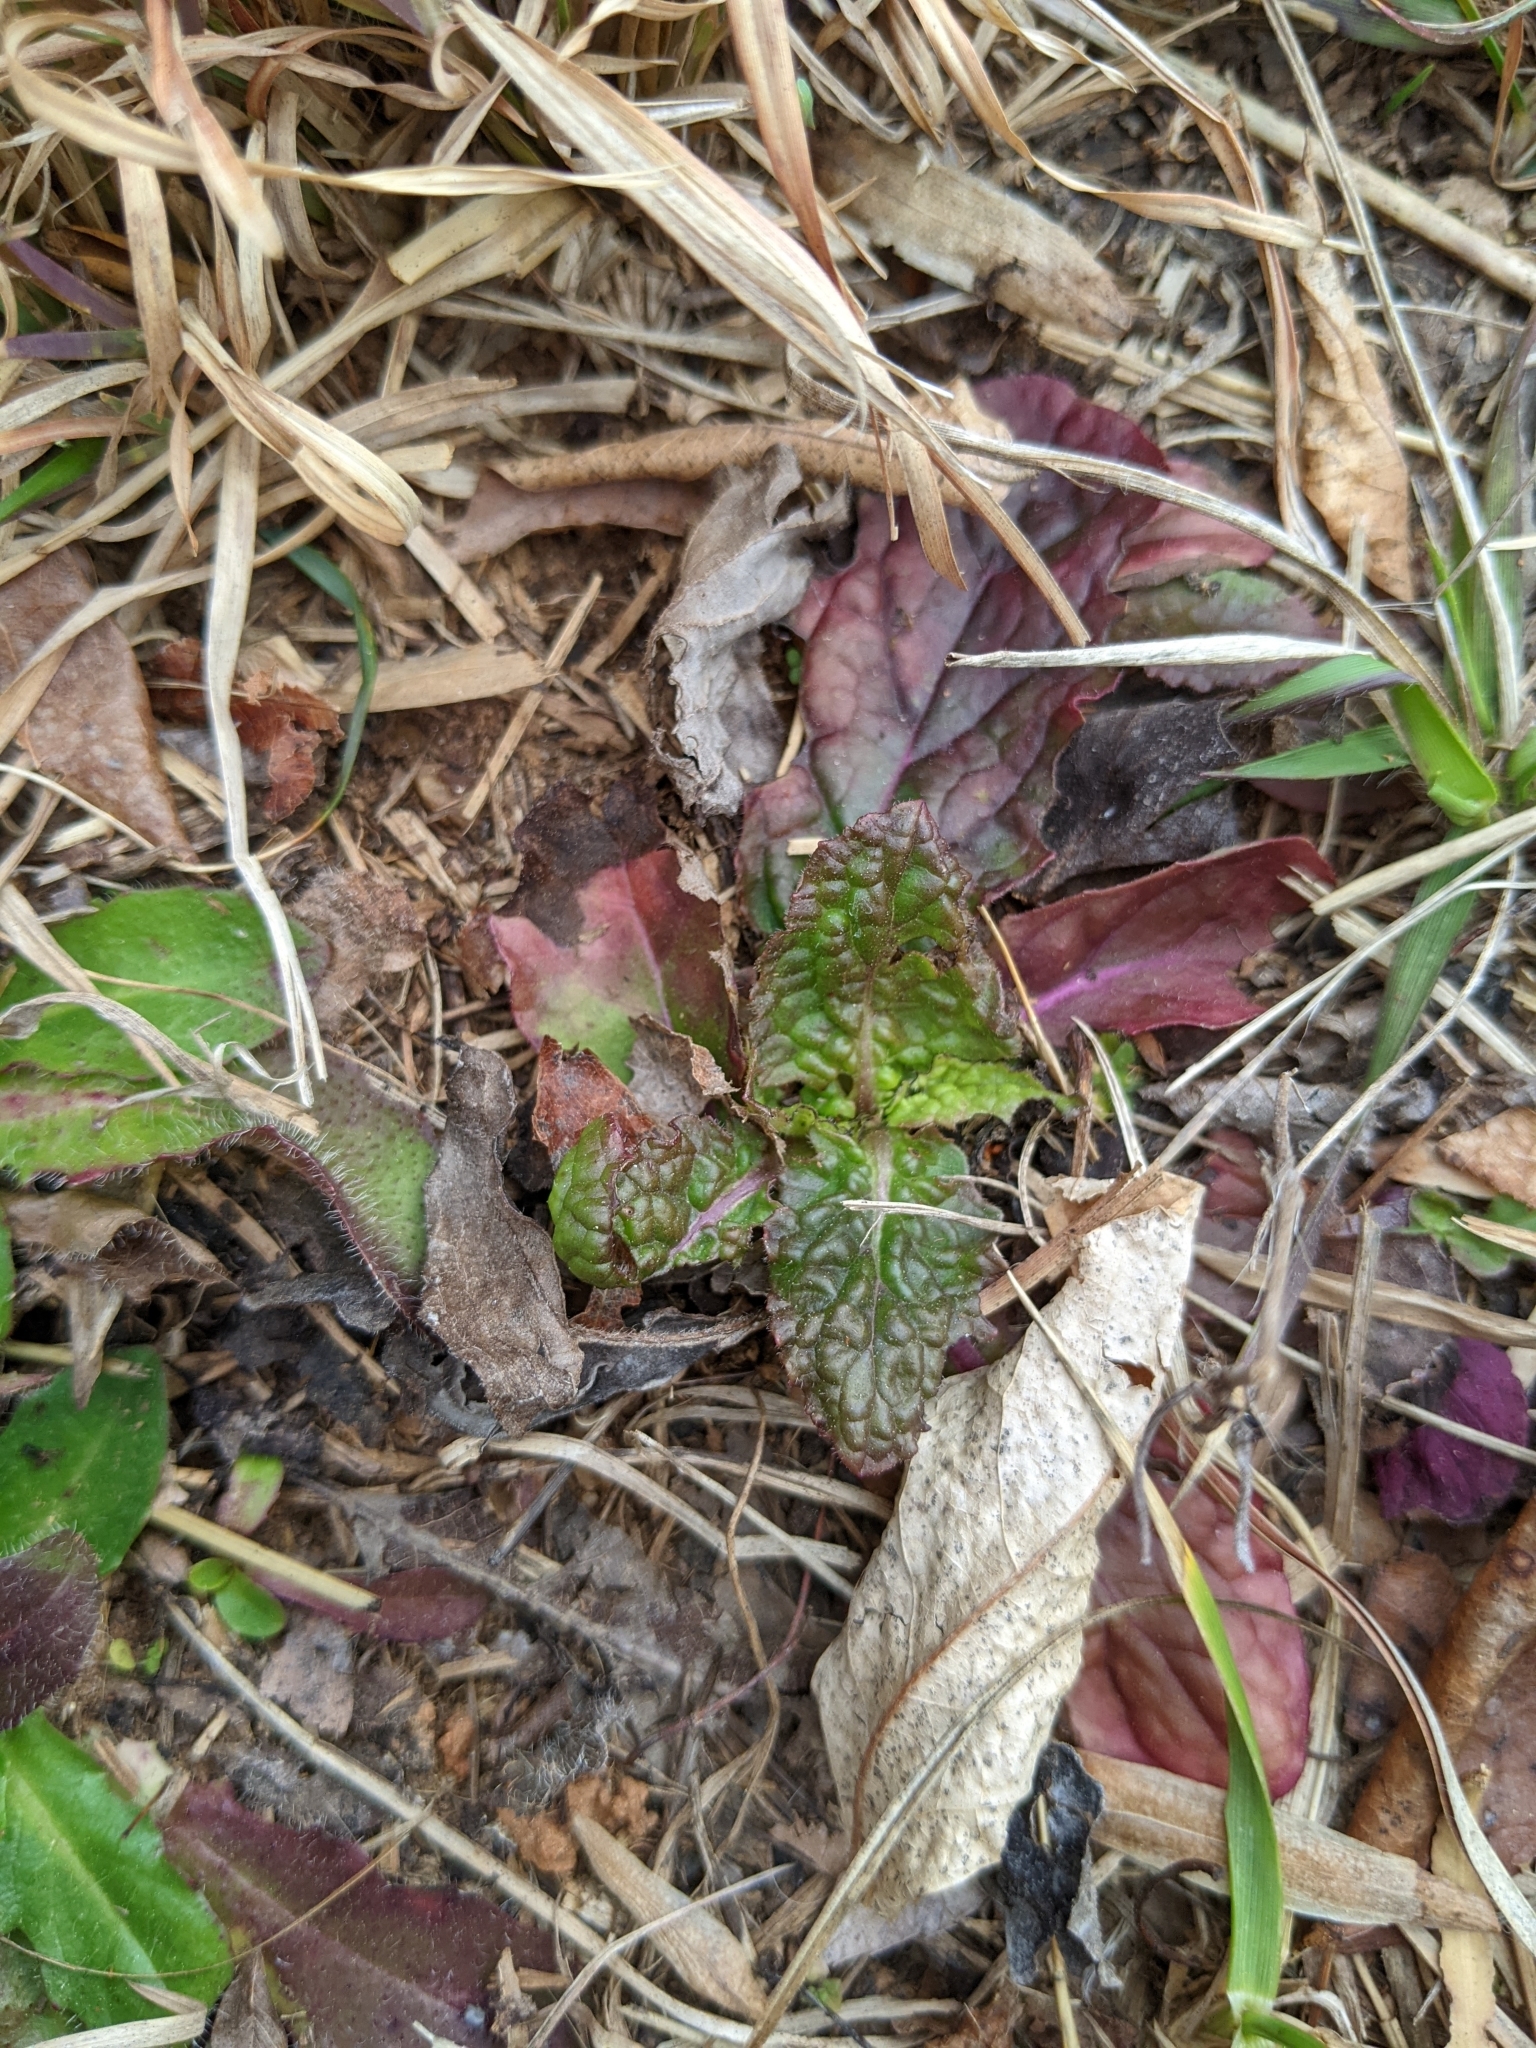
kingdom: Plantae
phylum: Tracheophyta
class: Magnoliopsida
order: Lamiales
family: Lamiaceae
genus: Salvia
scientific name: Salvia lyrata
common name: Cancerweed
